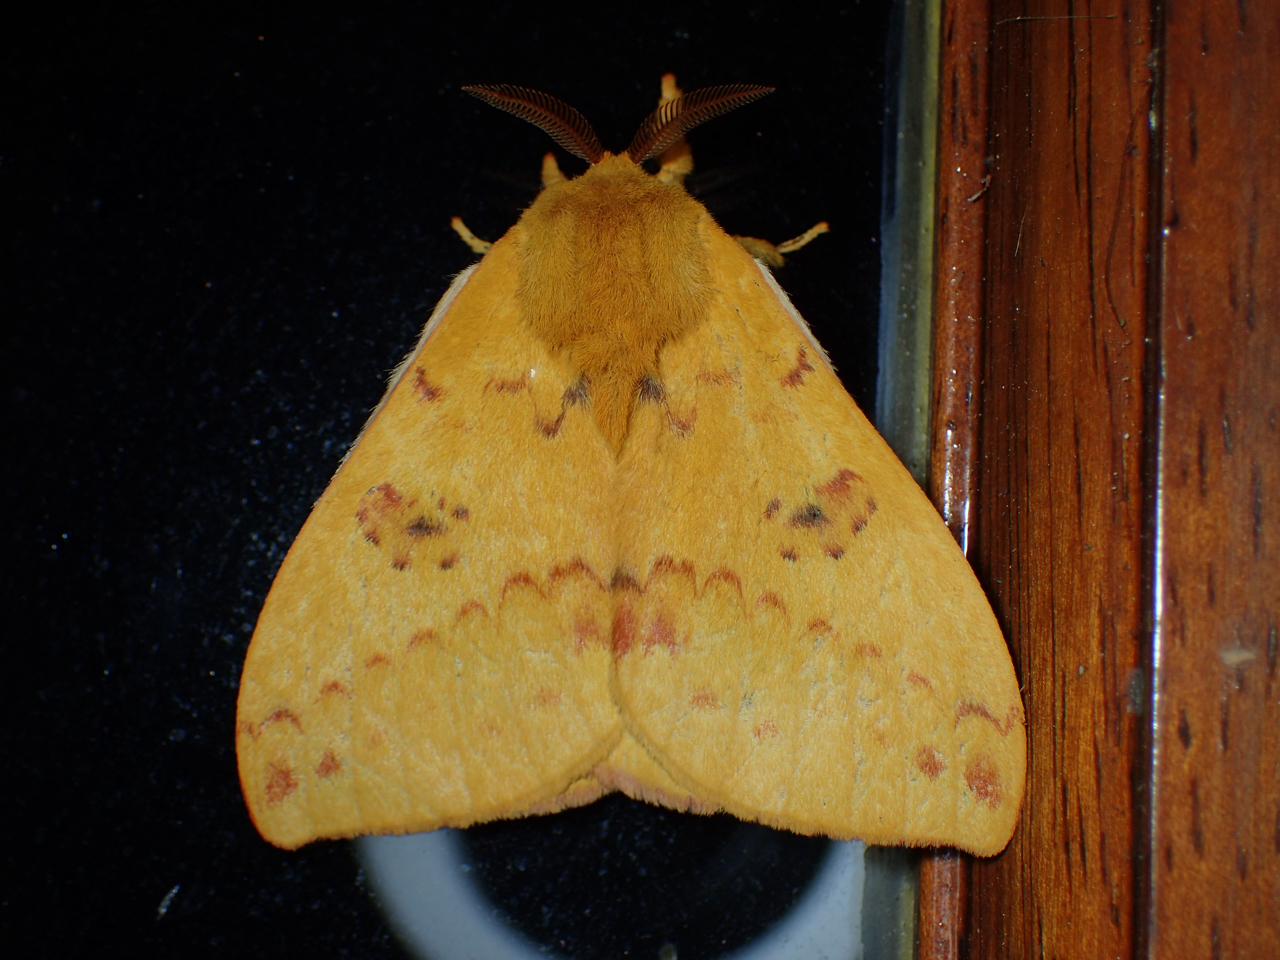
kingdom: Animalia
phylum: Arthropoda
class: Insecta
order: Lepidoptera
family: Saturniidae
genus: Automeris
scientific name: Automeris io
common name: Io moth
